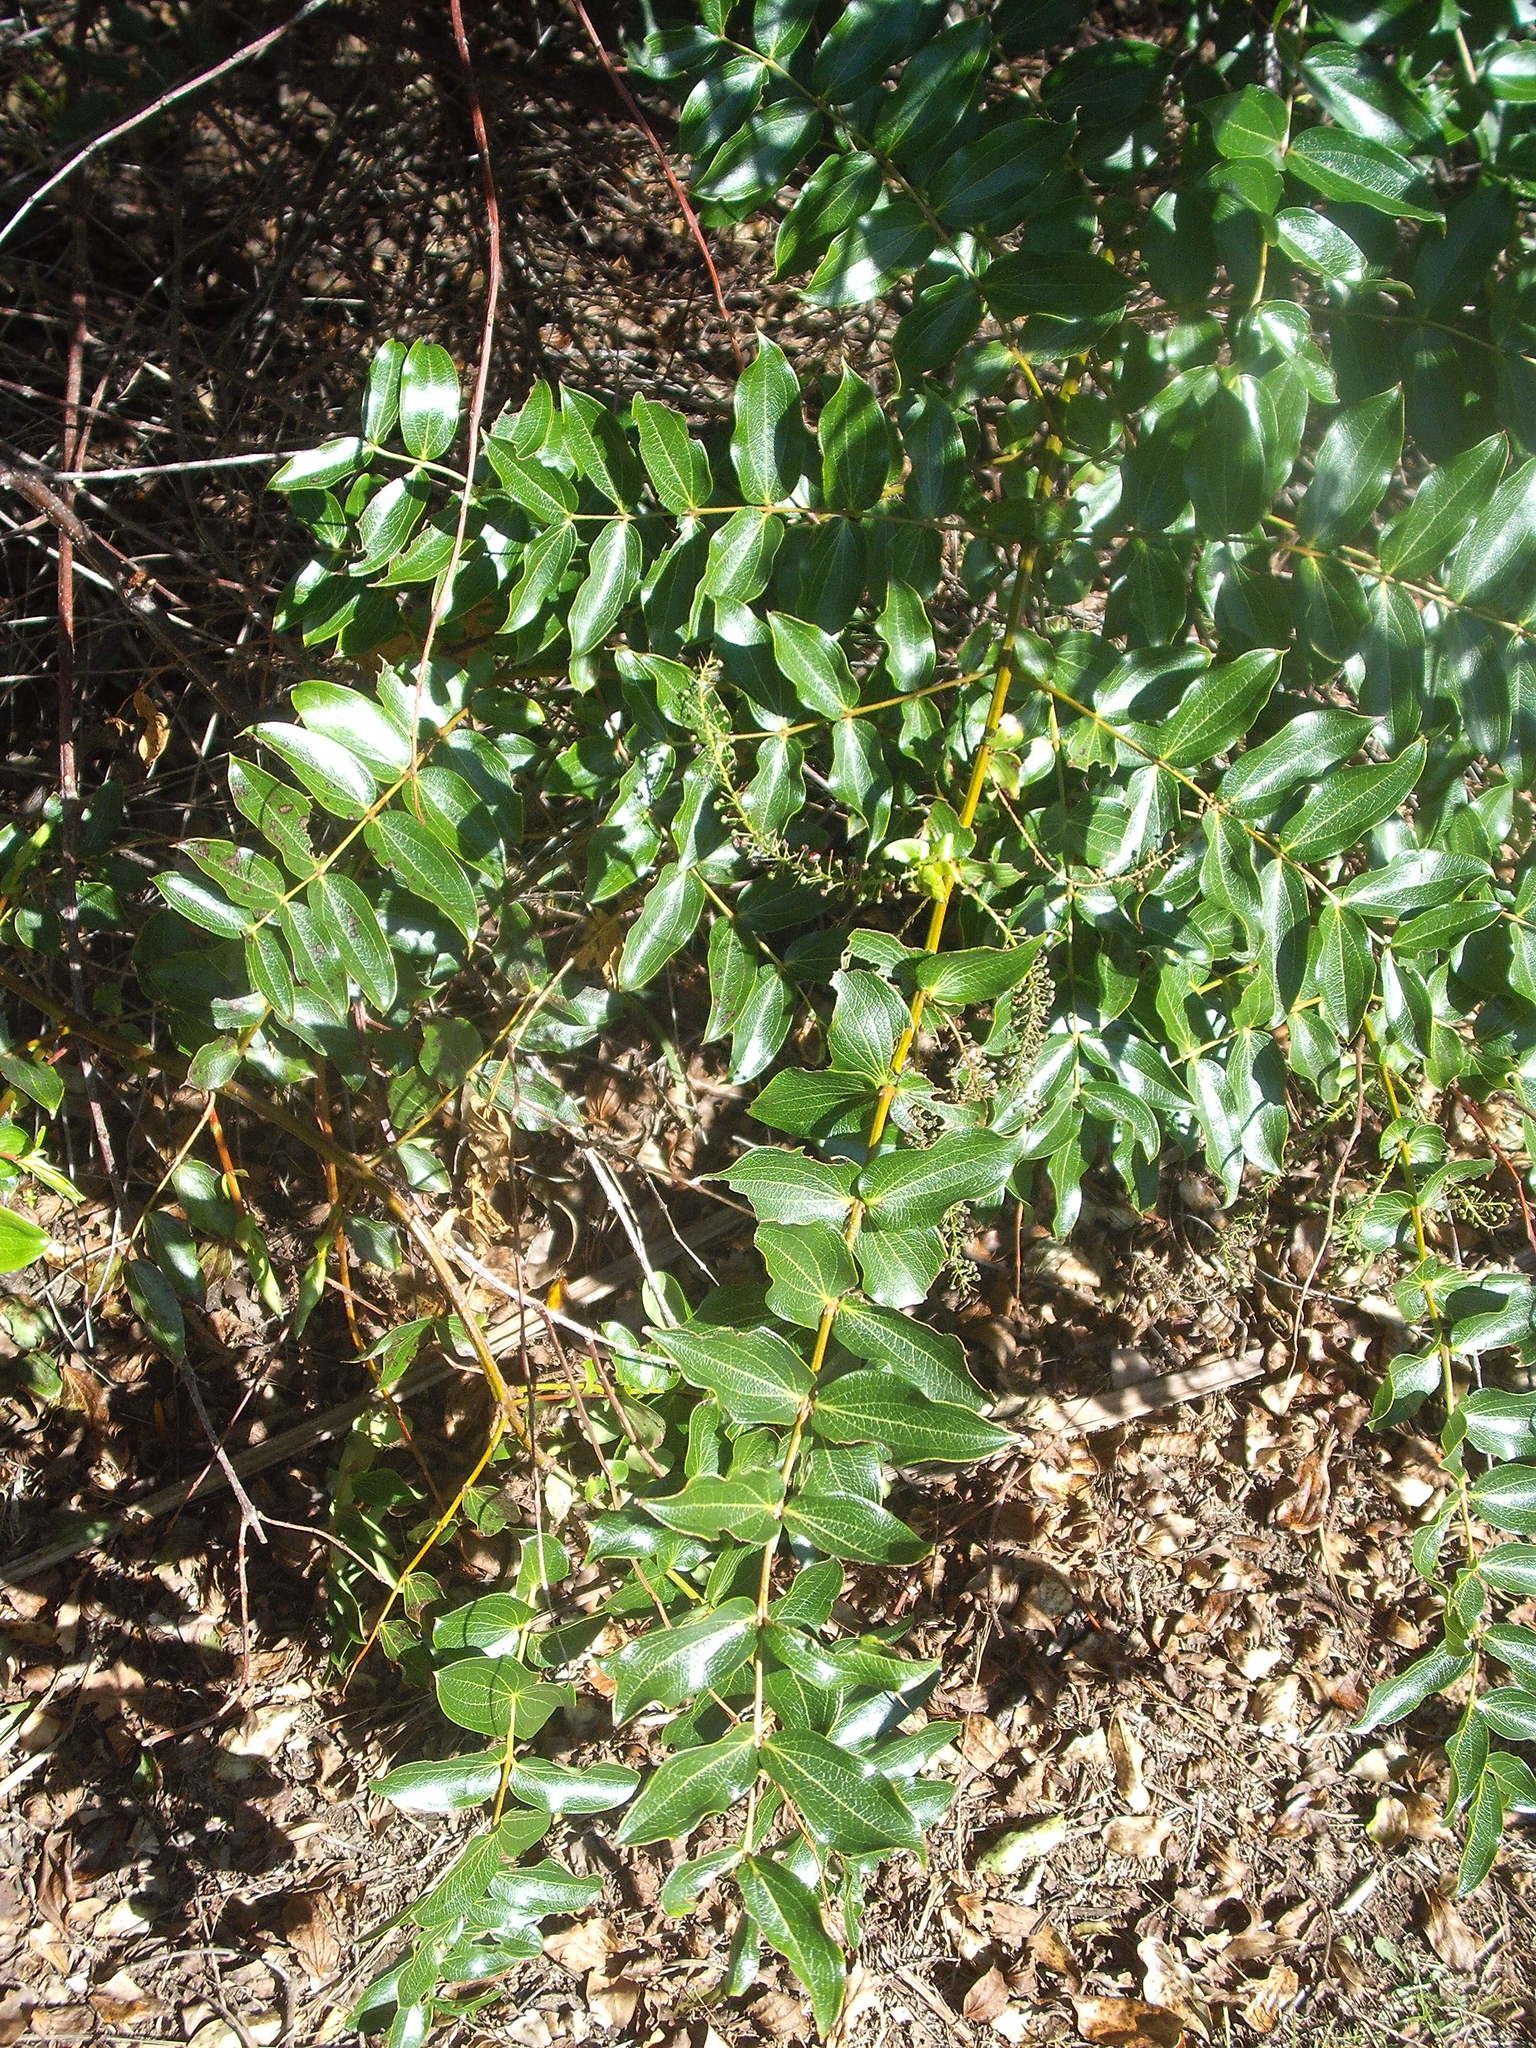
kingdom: Plantae
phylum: Tracheophyta
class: Magnoliopsida
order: Cucurbitales
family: Coriariaceae
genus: Coriaria
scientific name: Coriaria arborea
